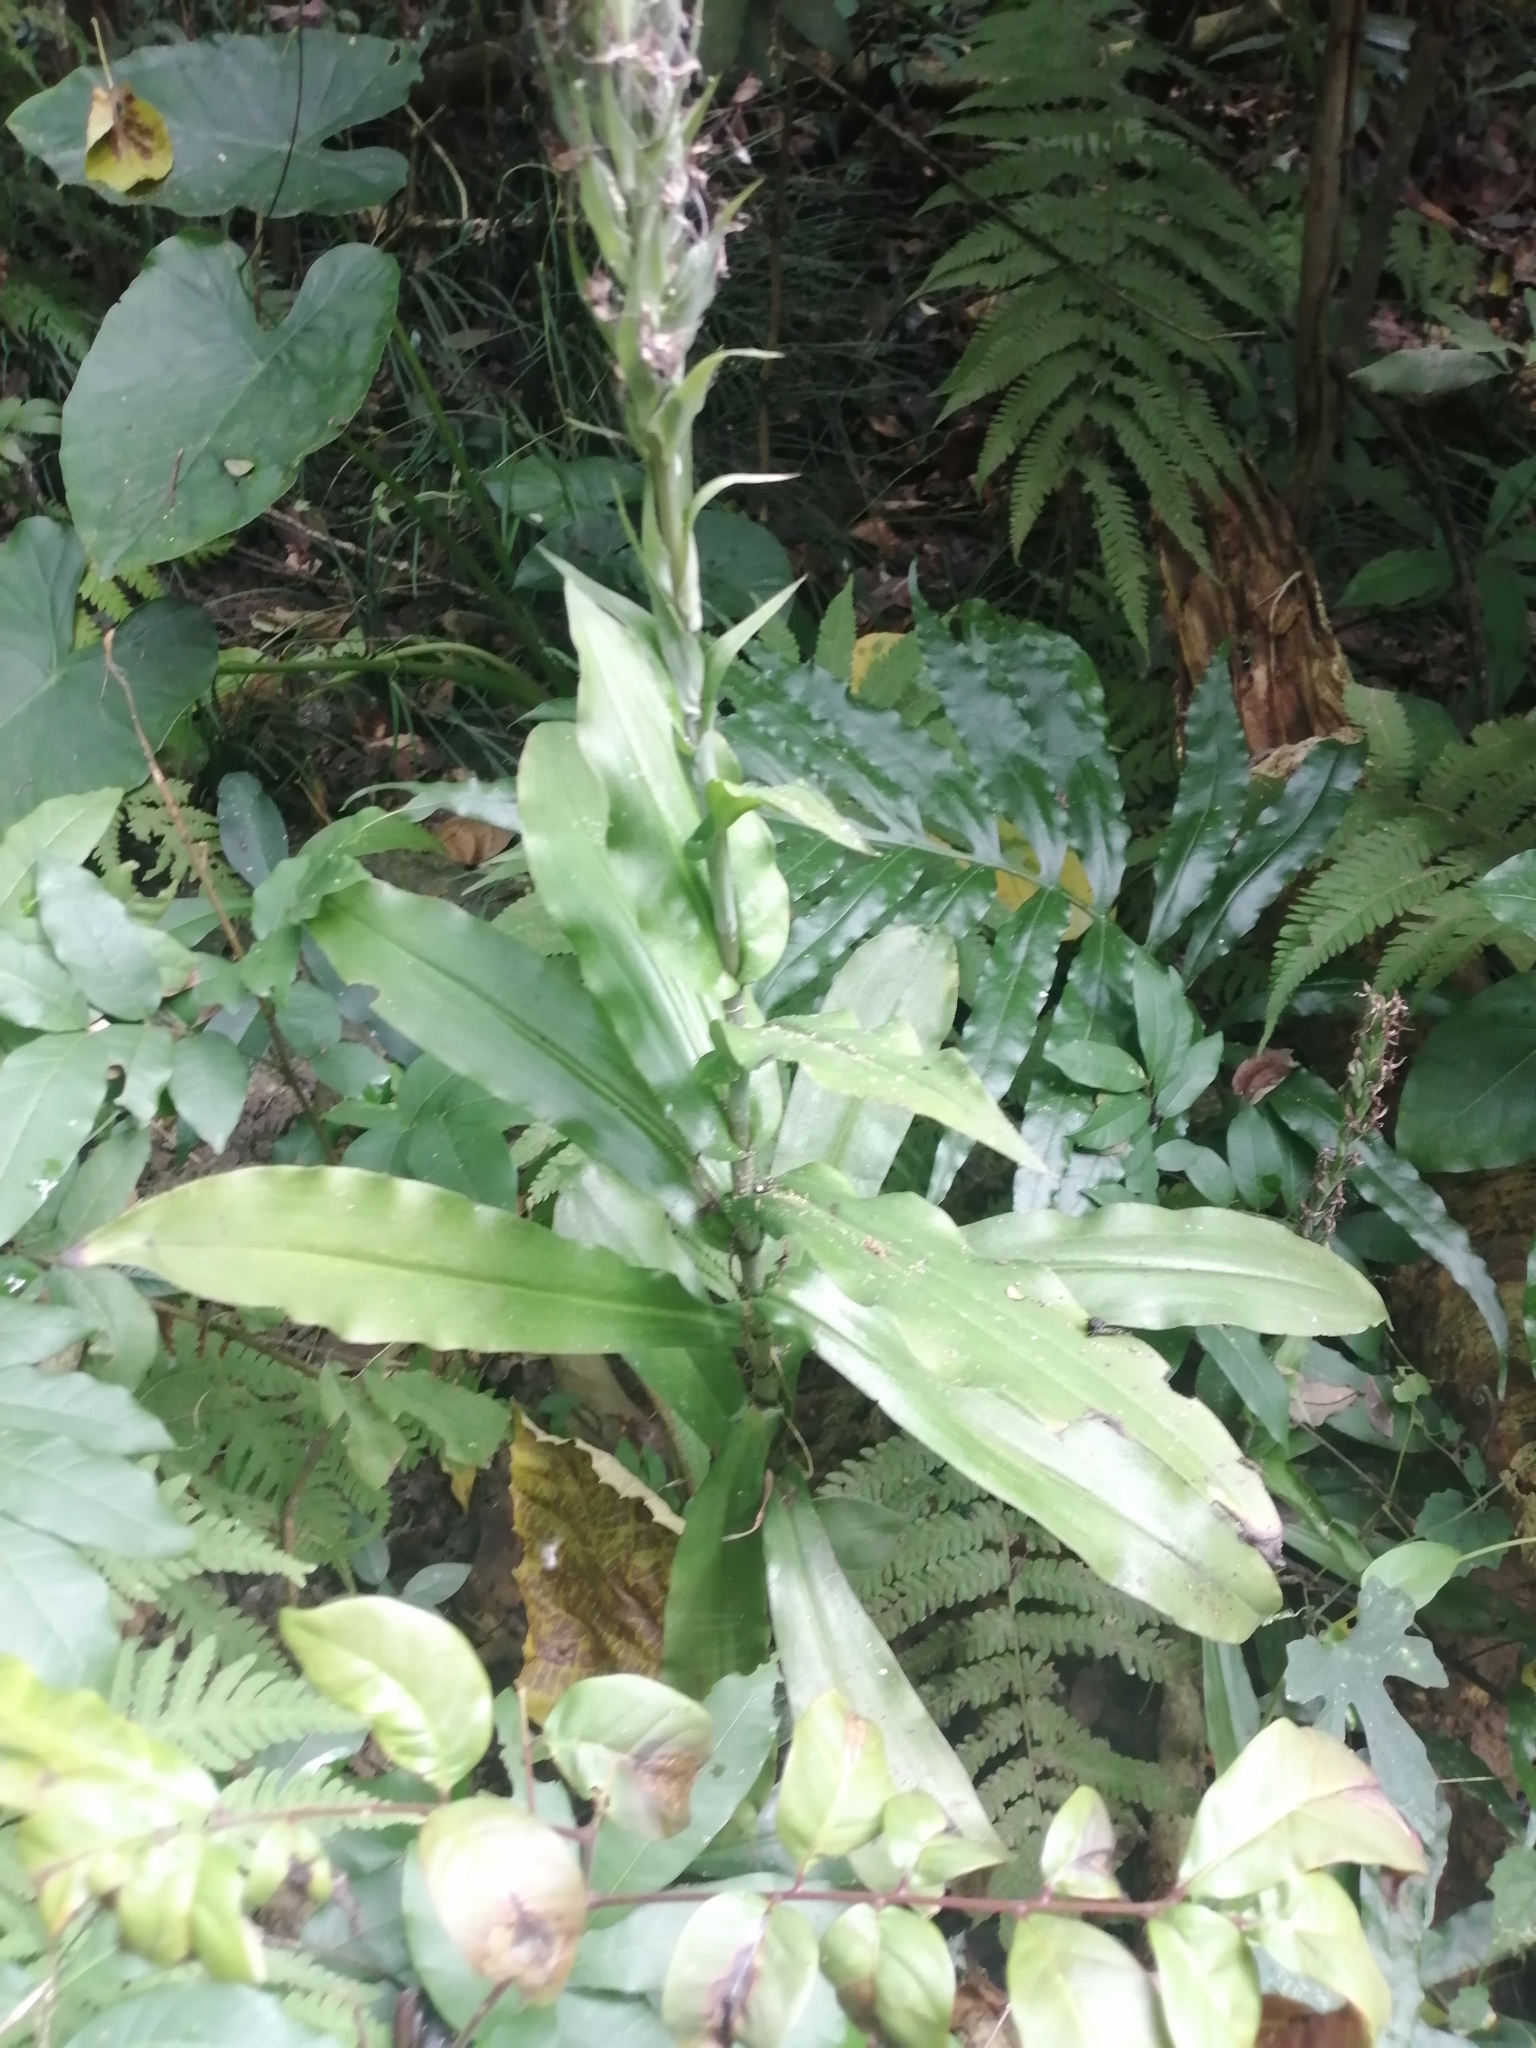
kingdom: Plantae
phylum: Tracheophyta
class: Liliopsida
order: Asparagales
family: Orchidaceae
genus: Habenaria
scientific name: Habenaria stenopetala
